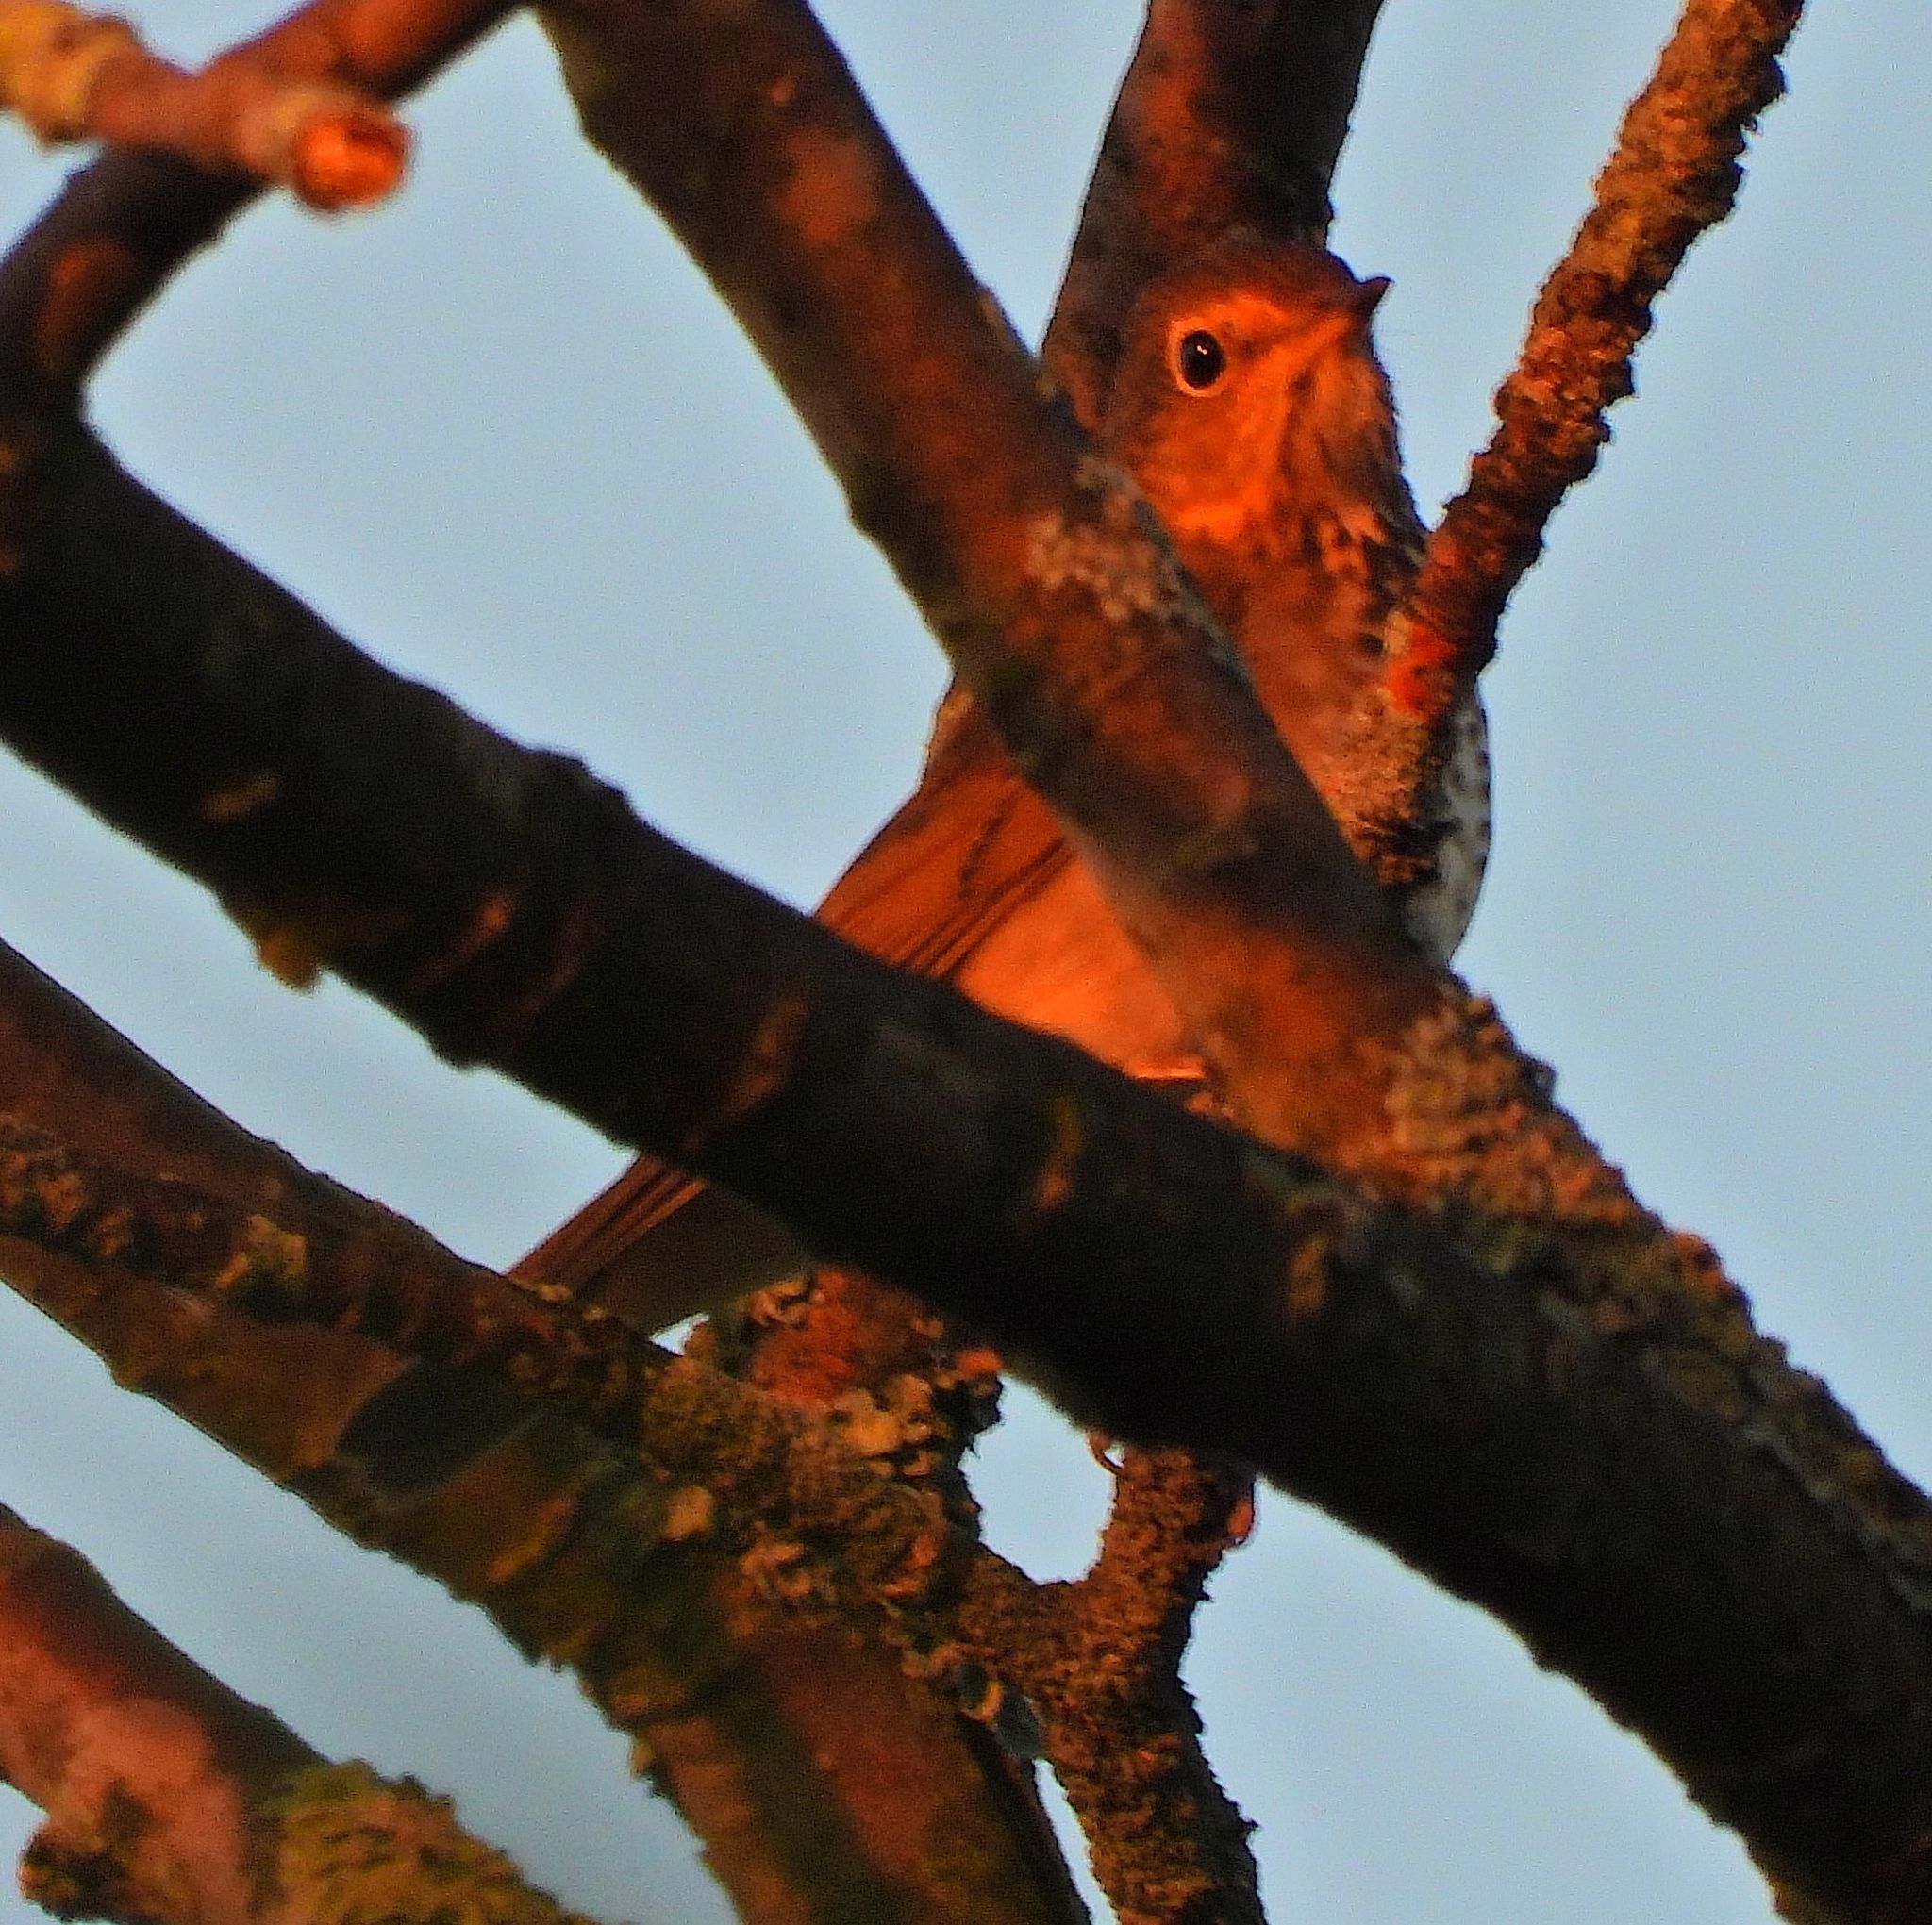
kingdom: Animalia
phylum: Chordata
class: Aves
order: Passeriformes
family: Turdidae
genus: Catharus
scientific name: Catharus ustulatus
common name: Swainson's thrush
